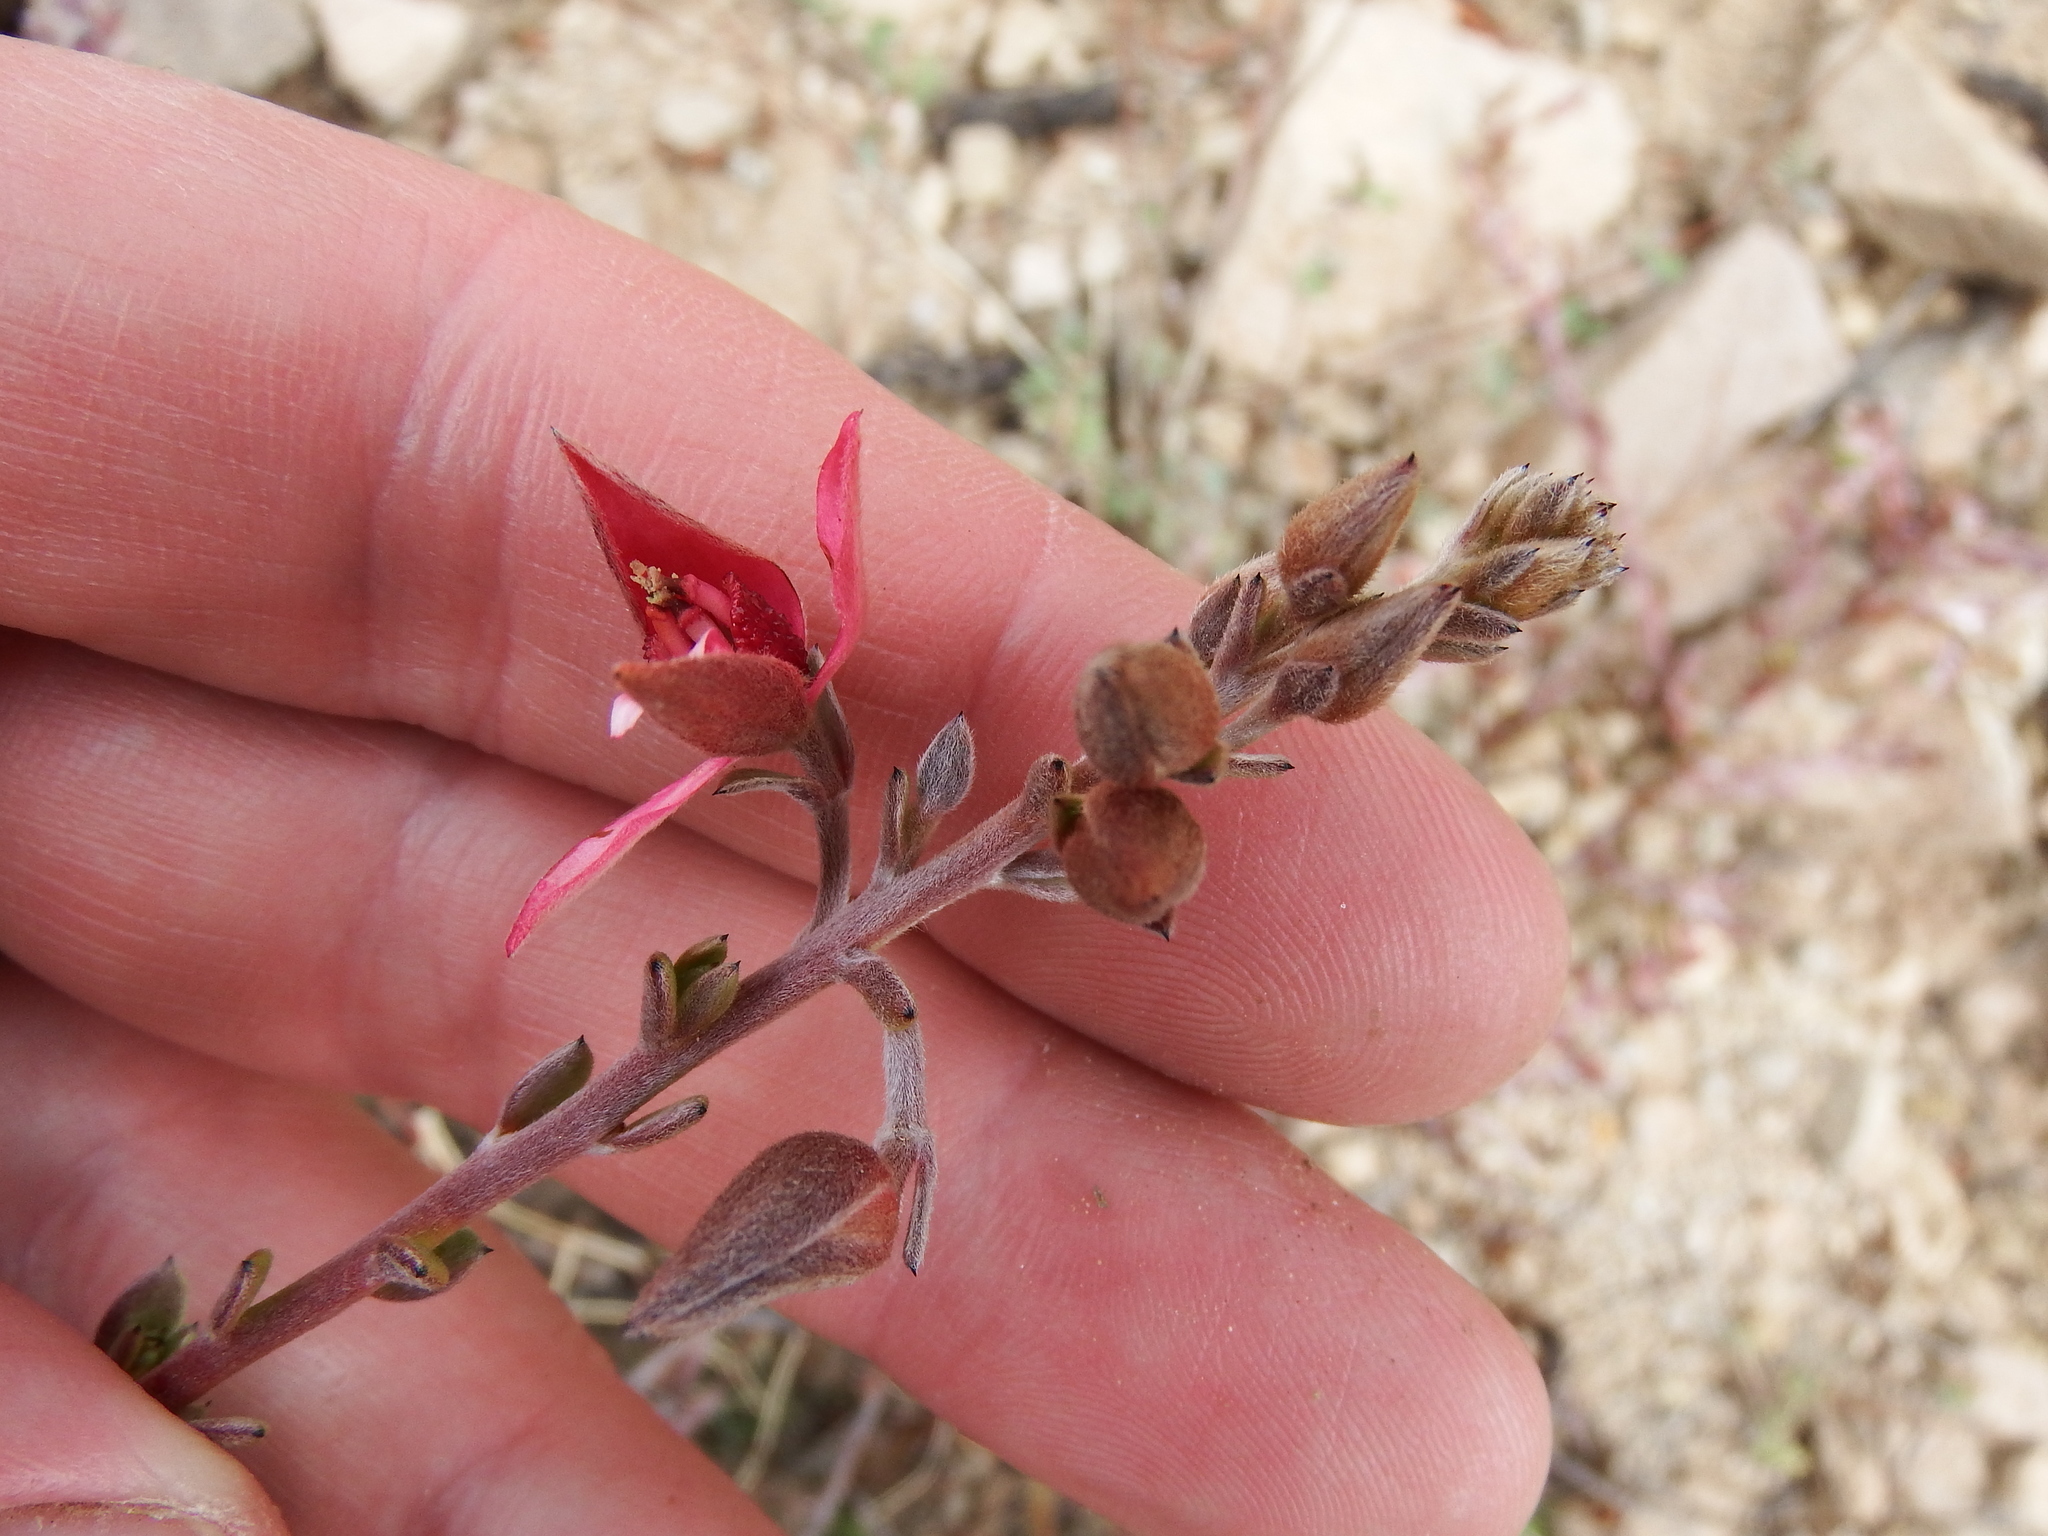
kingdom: Plantae
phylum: Tracheophyta
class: Magnoliopsida
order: Zygophyllales
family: Krameriaceae
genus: Krameria
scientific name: Krameria lappacea
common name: Rhatany
